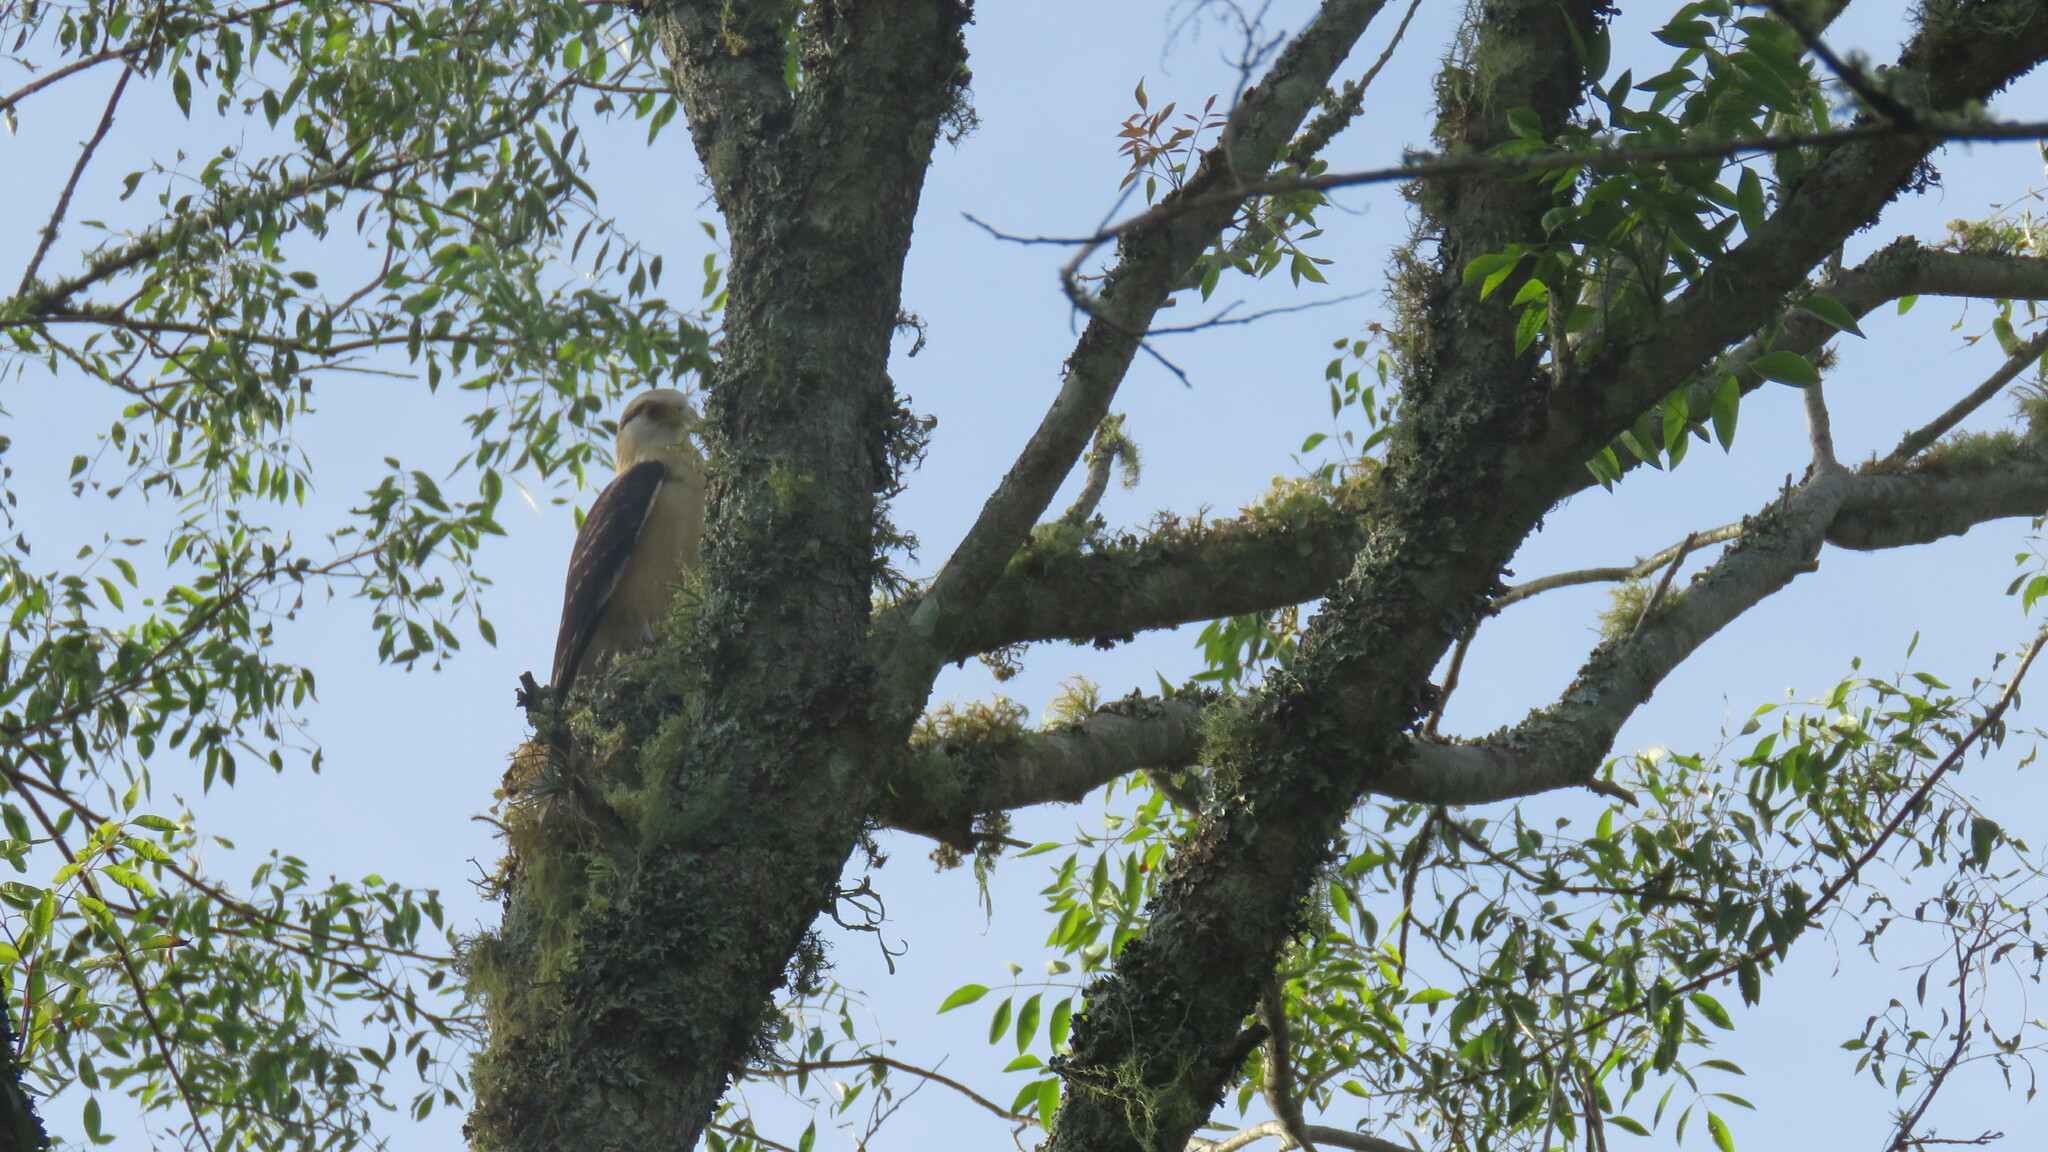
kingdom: Animalia
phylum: Chordata
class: Aves
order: Falconiformes
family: Falconidae
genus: Daptrius
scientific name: Daptrius
